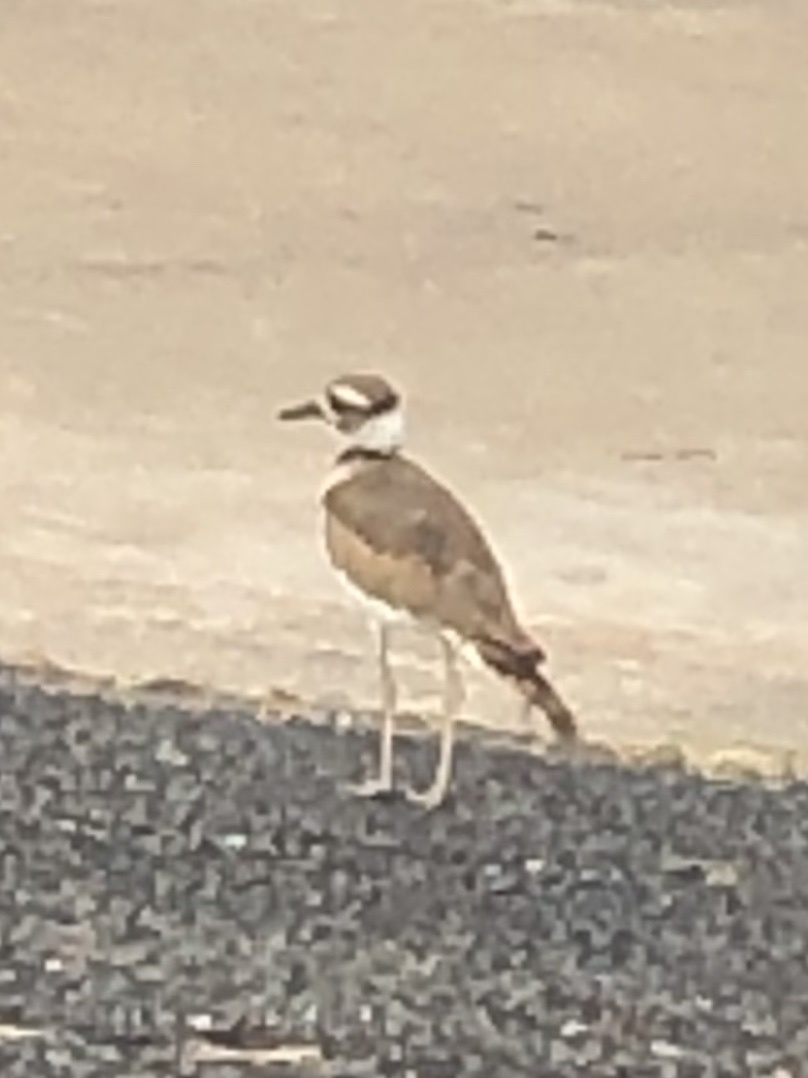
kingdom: Animalia
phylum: Chordata
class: Aves
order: Charadriiformes
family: Charadriidae
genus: Charadrius
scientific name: Charadrius vociferus
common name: Killdeer
